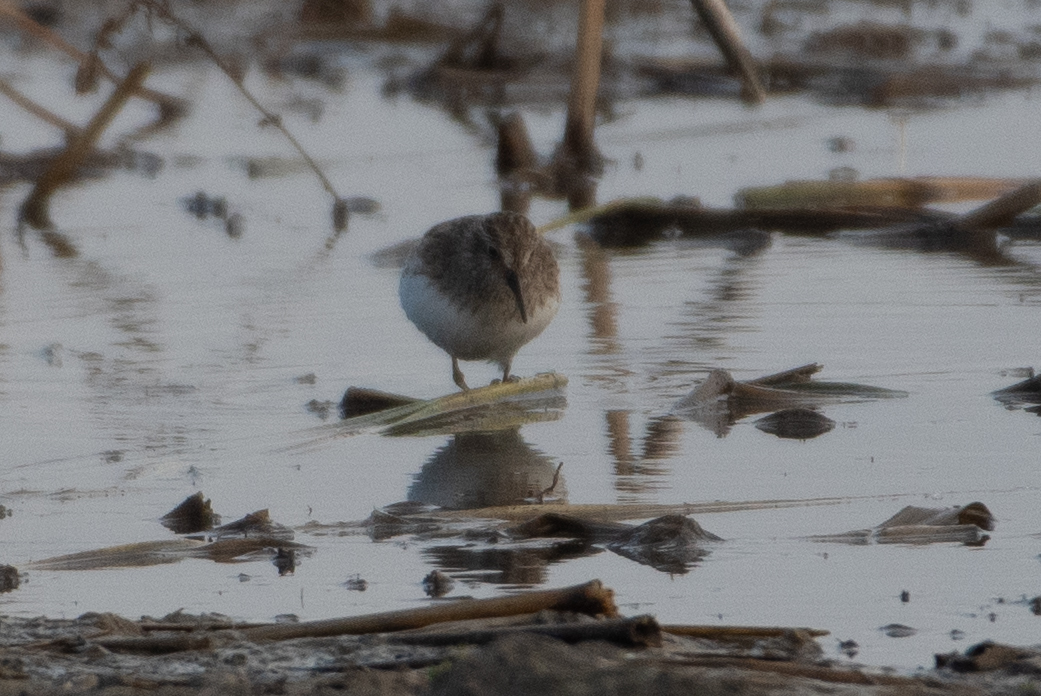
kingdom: Animalia
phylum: Chordata
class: Aves
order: Charadriiformes
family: Scolopacidae
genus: Calidris
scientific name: Calidris minutilla
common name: Least sandpiper
